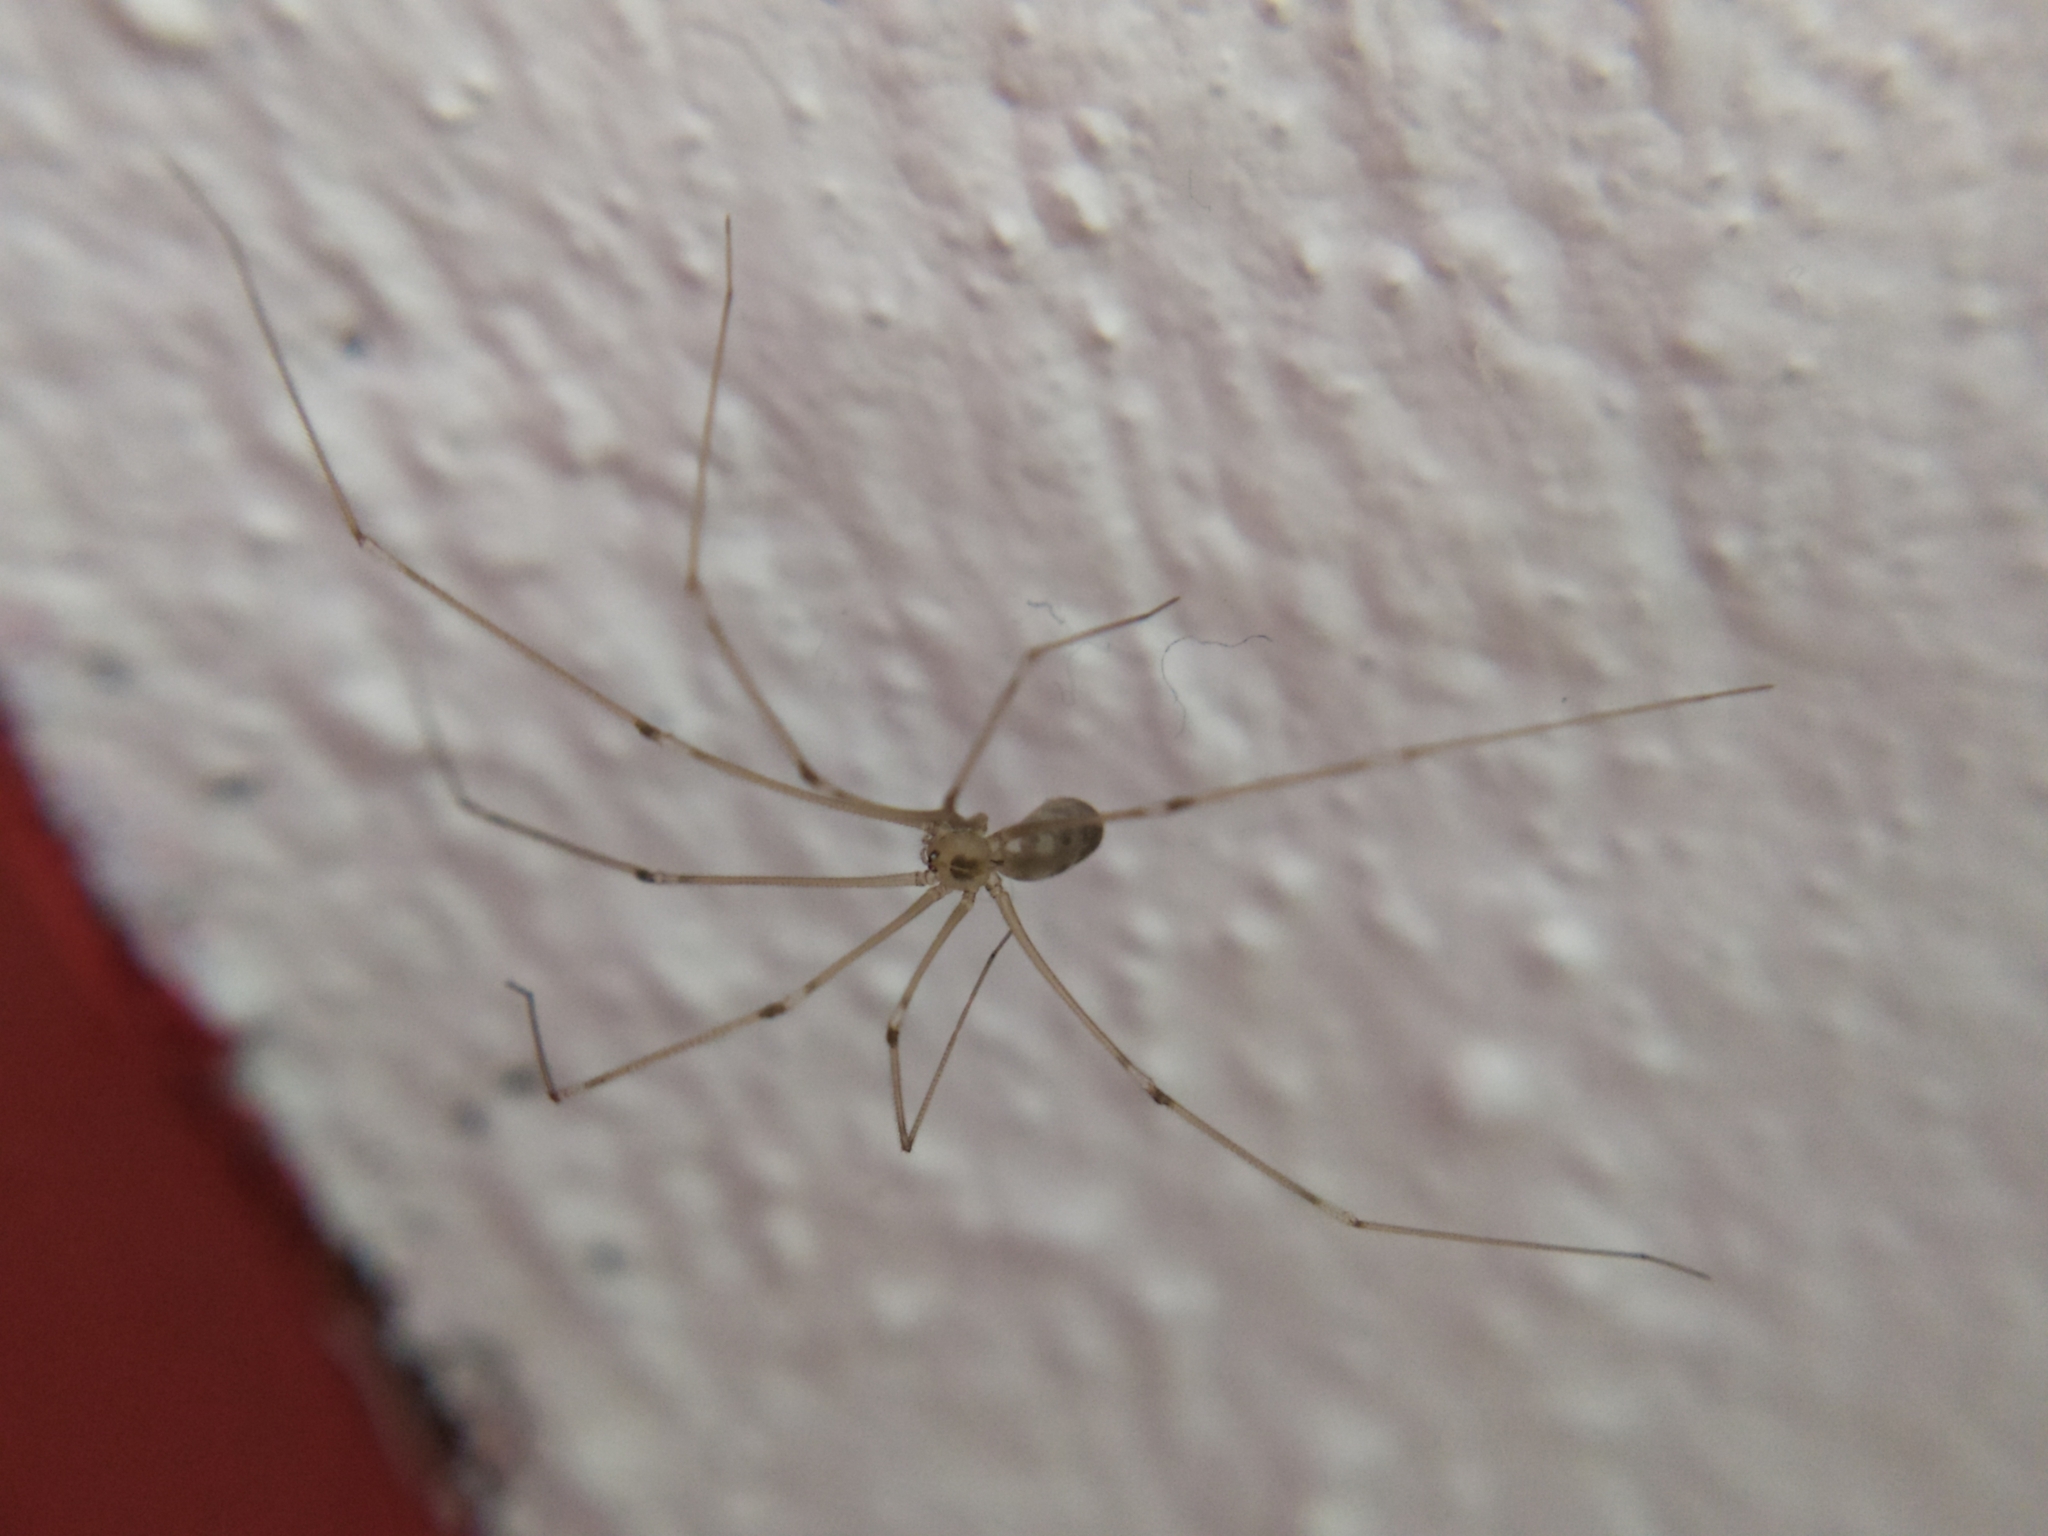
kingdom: Animalia
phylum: Arthropoda
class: Arachnida
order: Araneae
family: Pholcidae
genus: Pholcus
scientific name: Pholcus phalangioides
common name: Longbodied cellar spider
